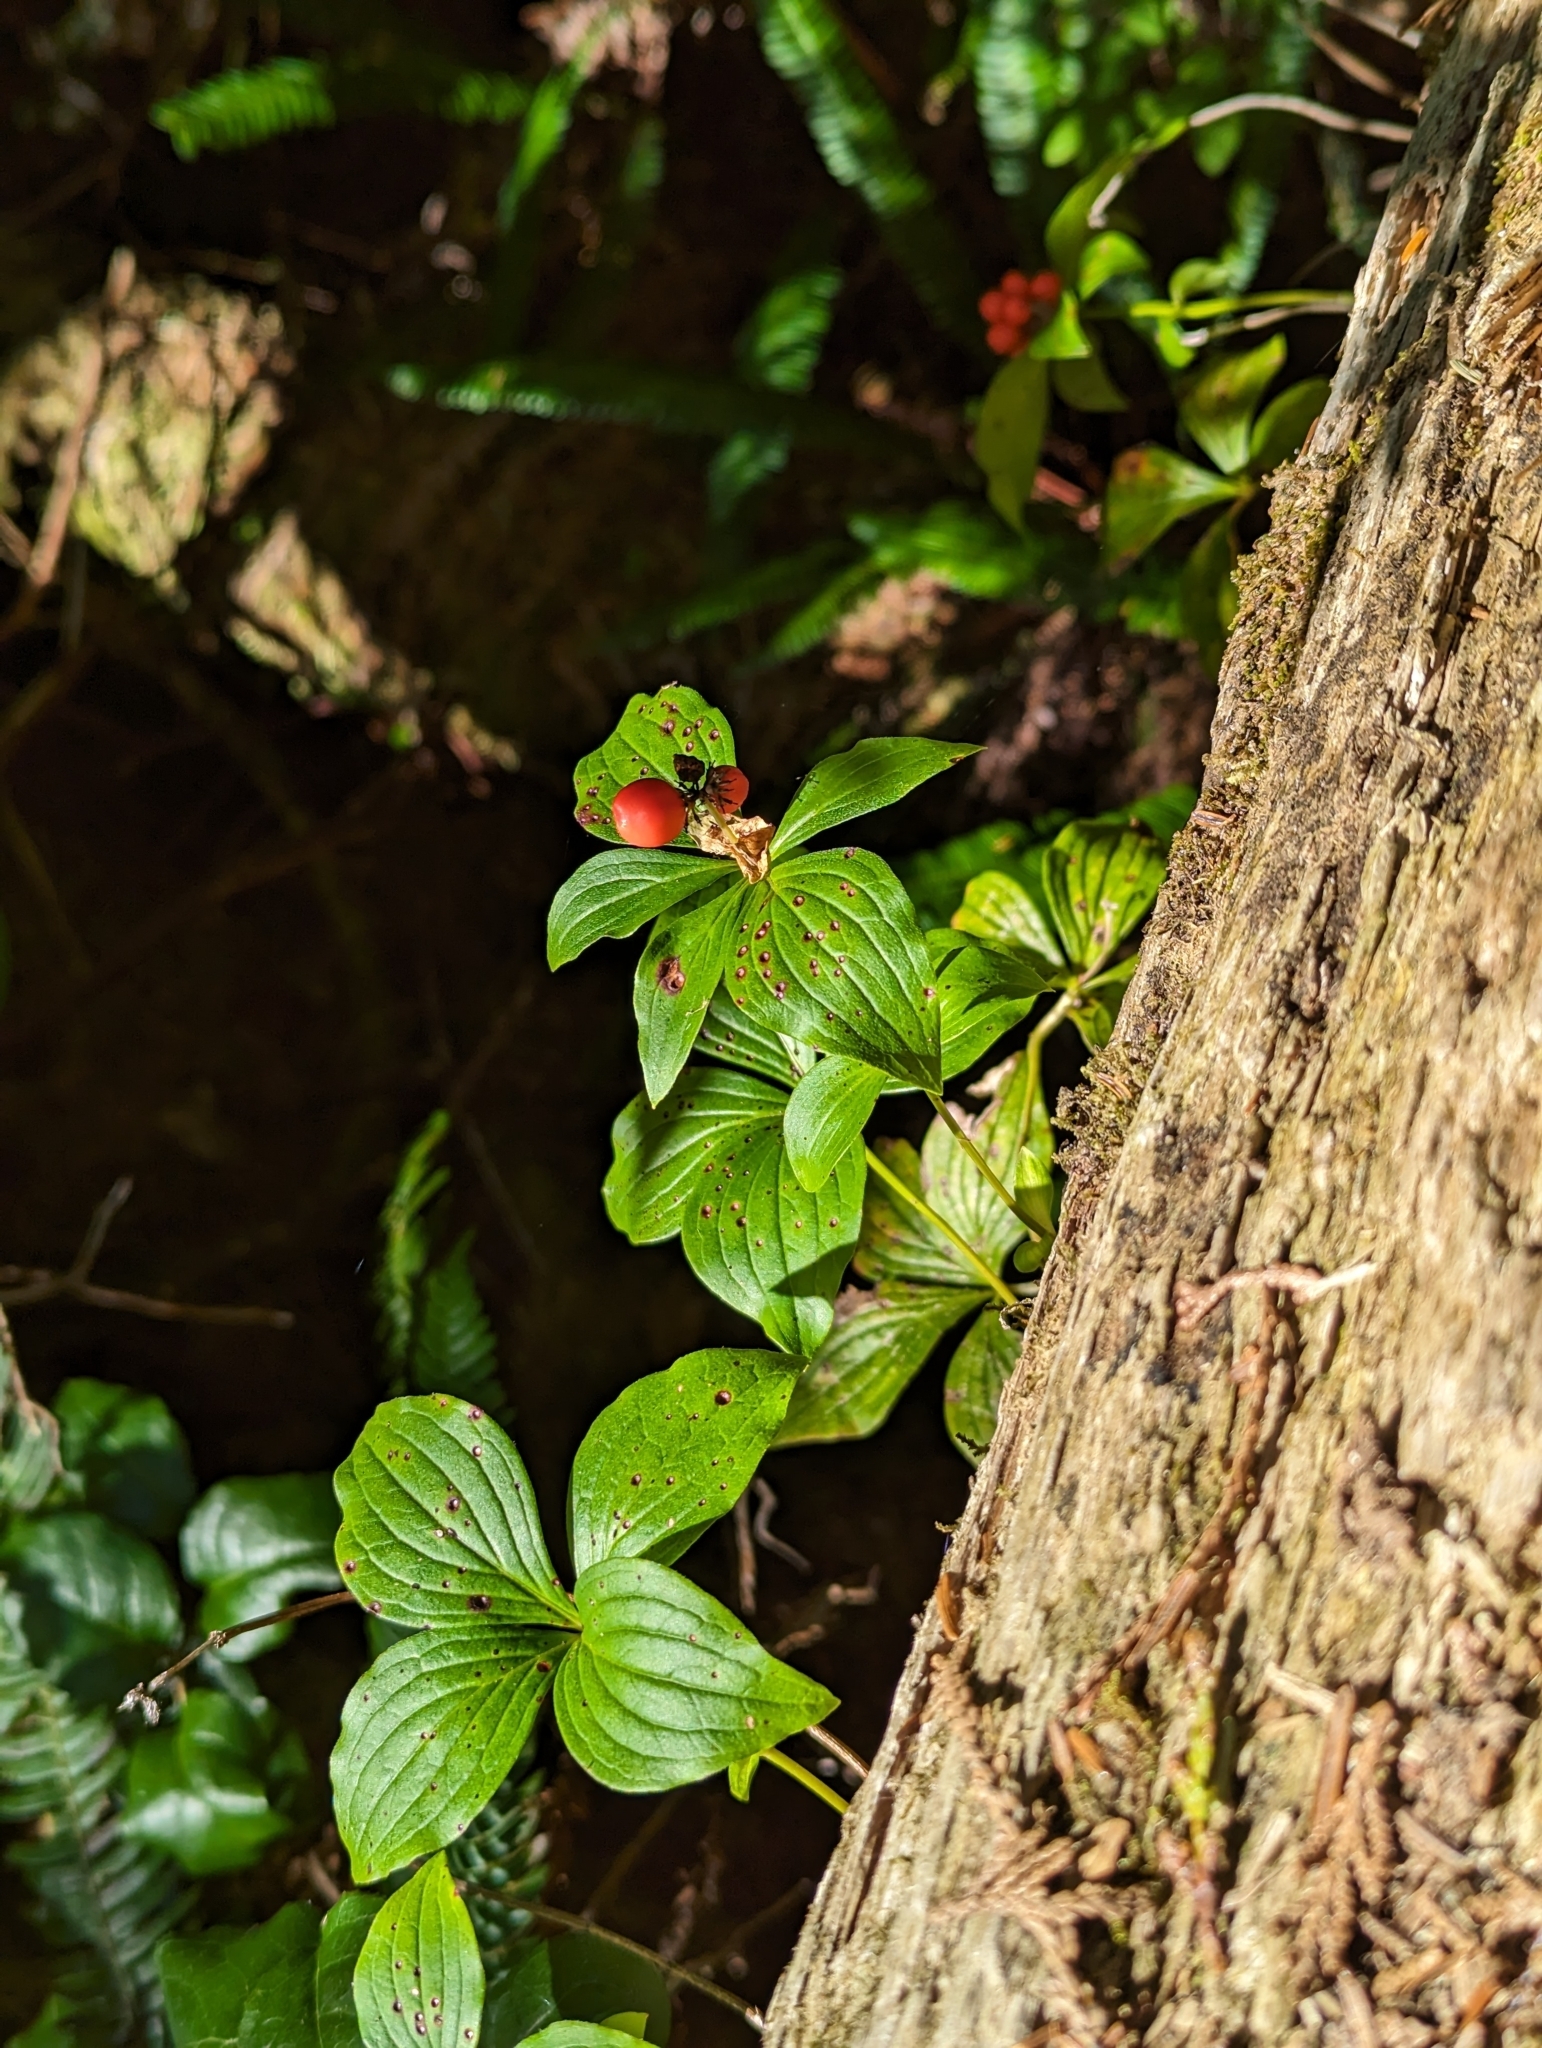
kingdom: Plantae
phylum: Tracheophyta
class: Magnoliopsida
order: Cornales
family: Cornaceae
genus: Cornus
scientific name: Cornus unalaschkensis
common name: Alaska bunchberry
